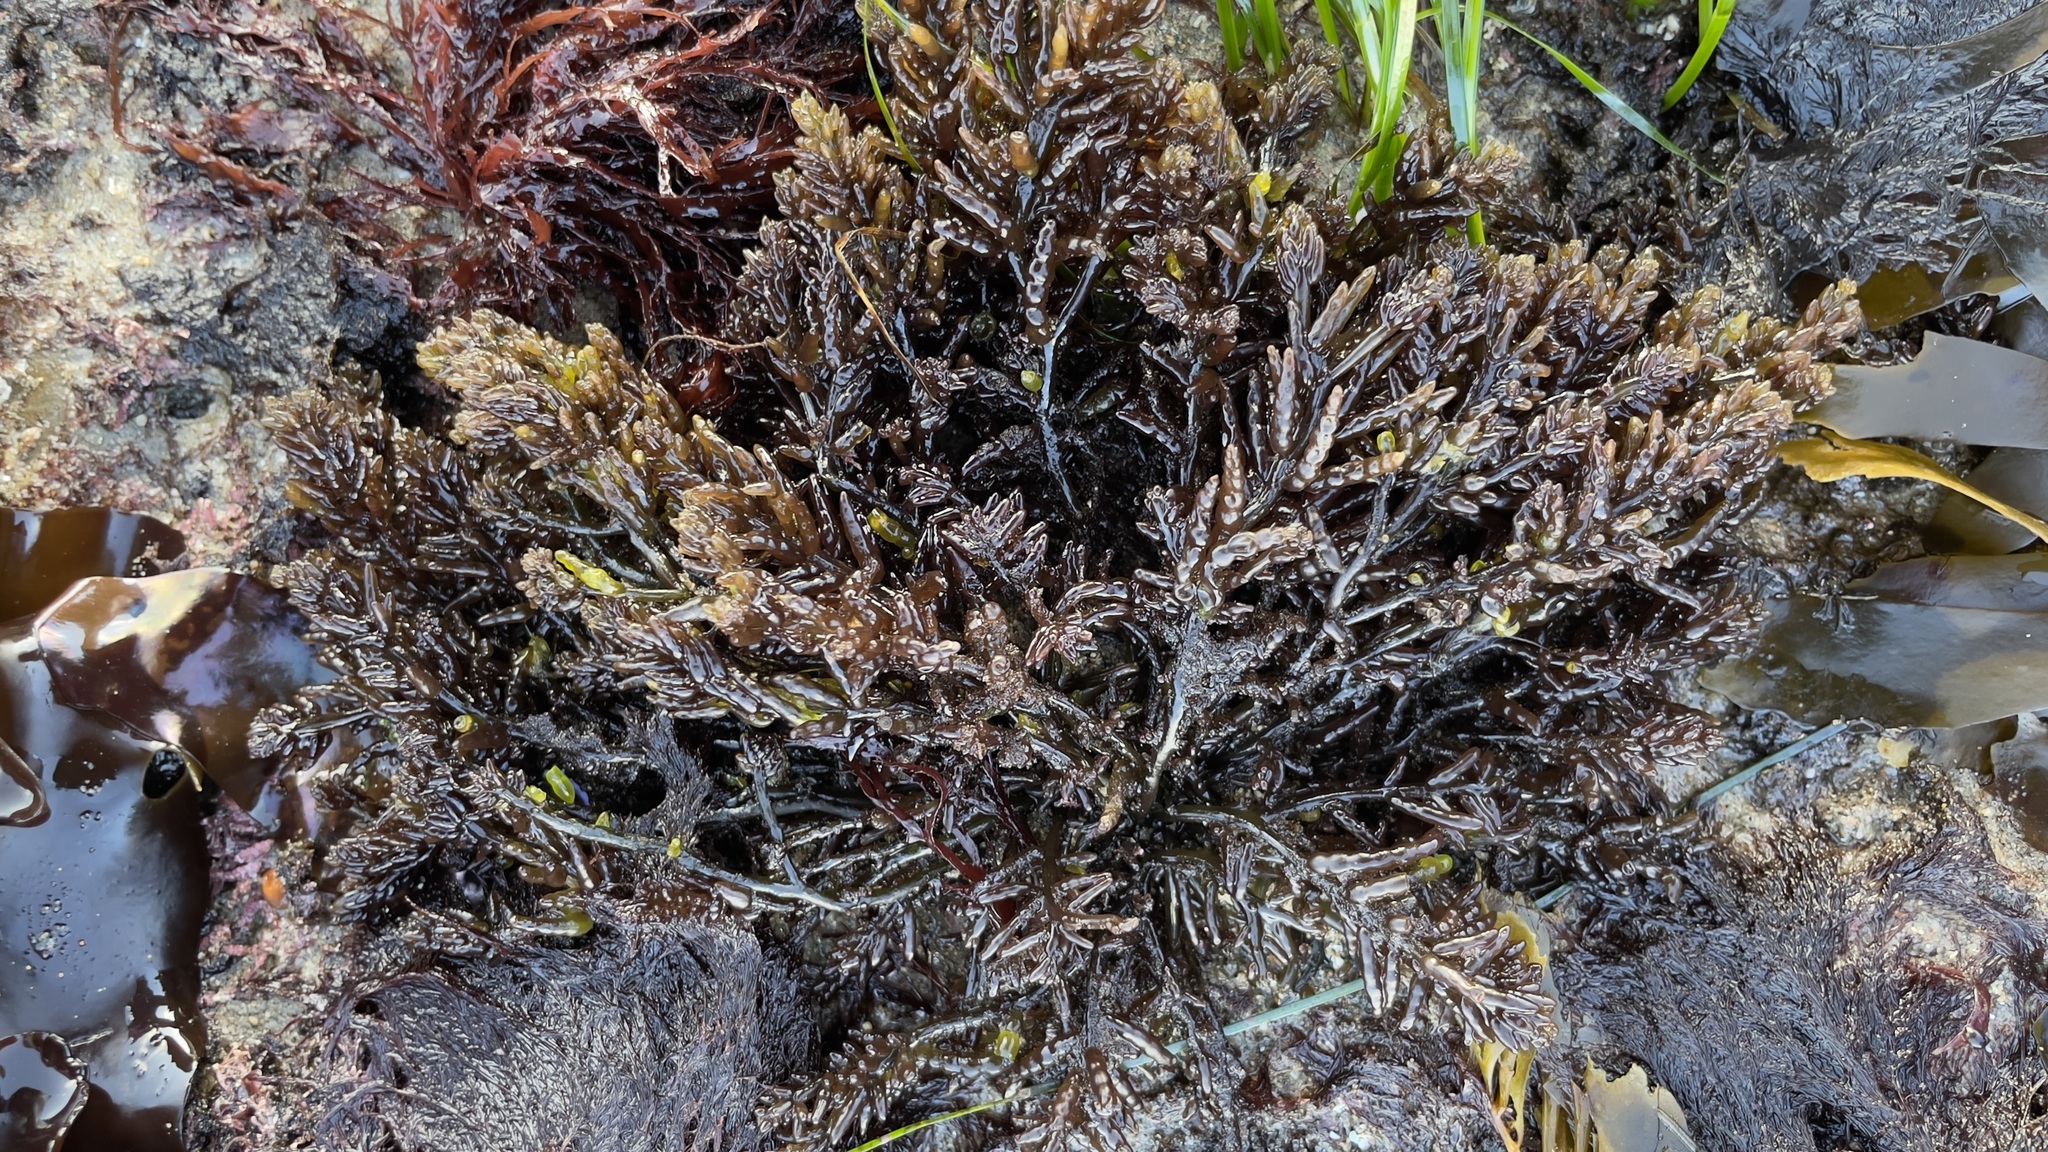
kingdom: Plantae
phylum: Rhodophyta
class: Florideophyceae
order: Rhodymeniales
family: Champiaceae
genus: Neogastroclonium
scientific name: Neogastroclonium subarticulatum
